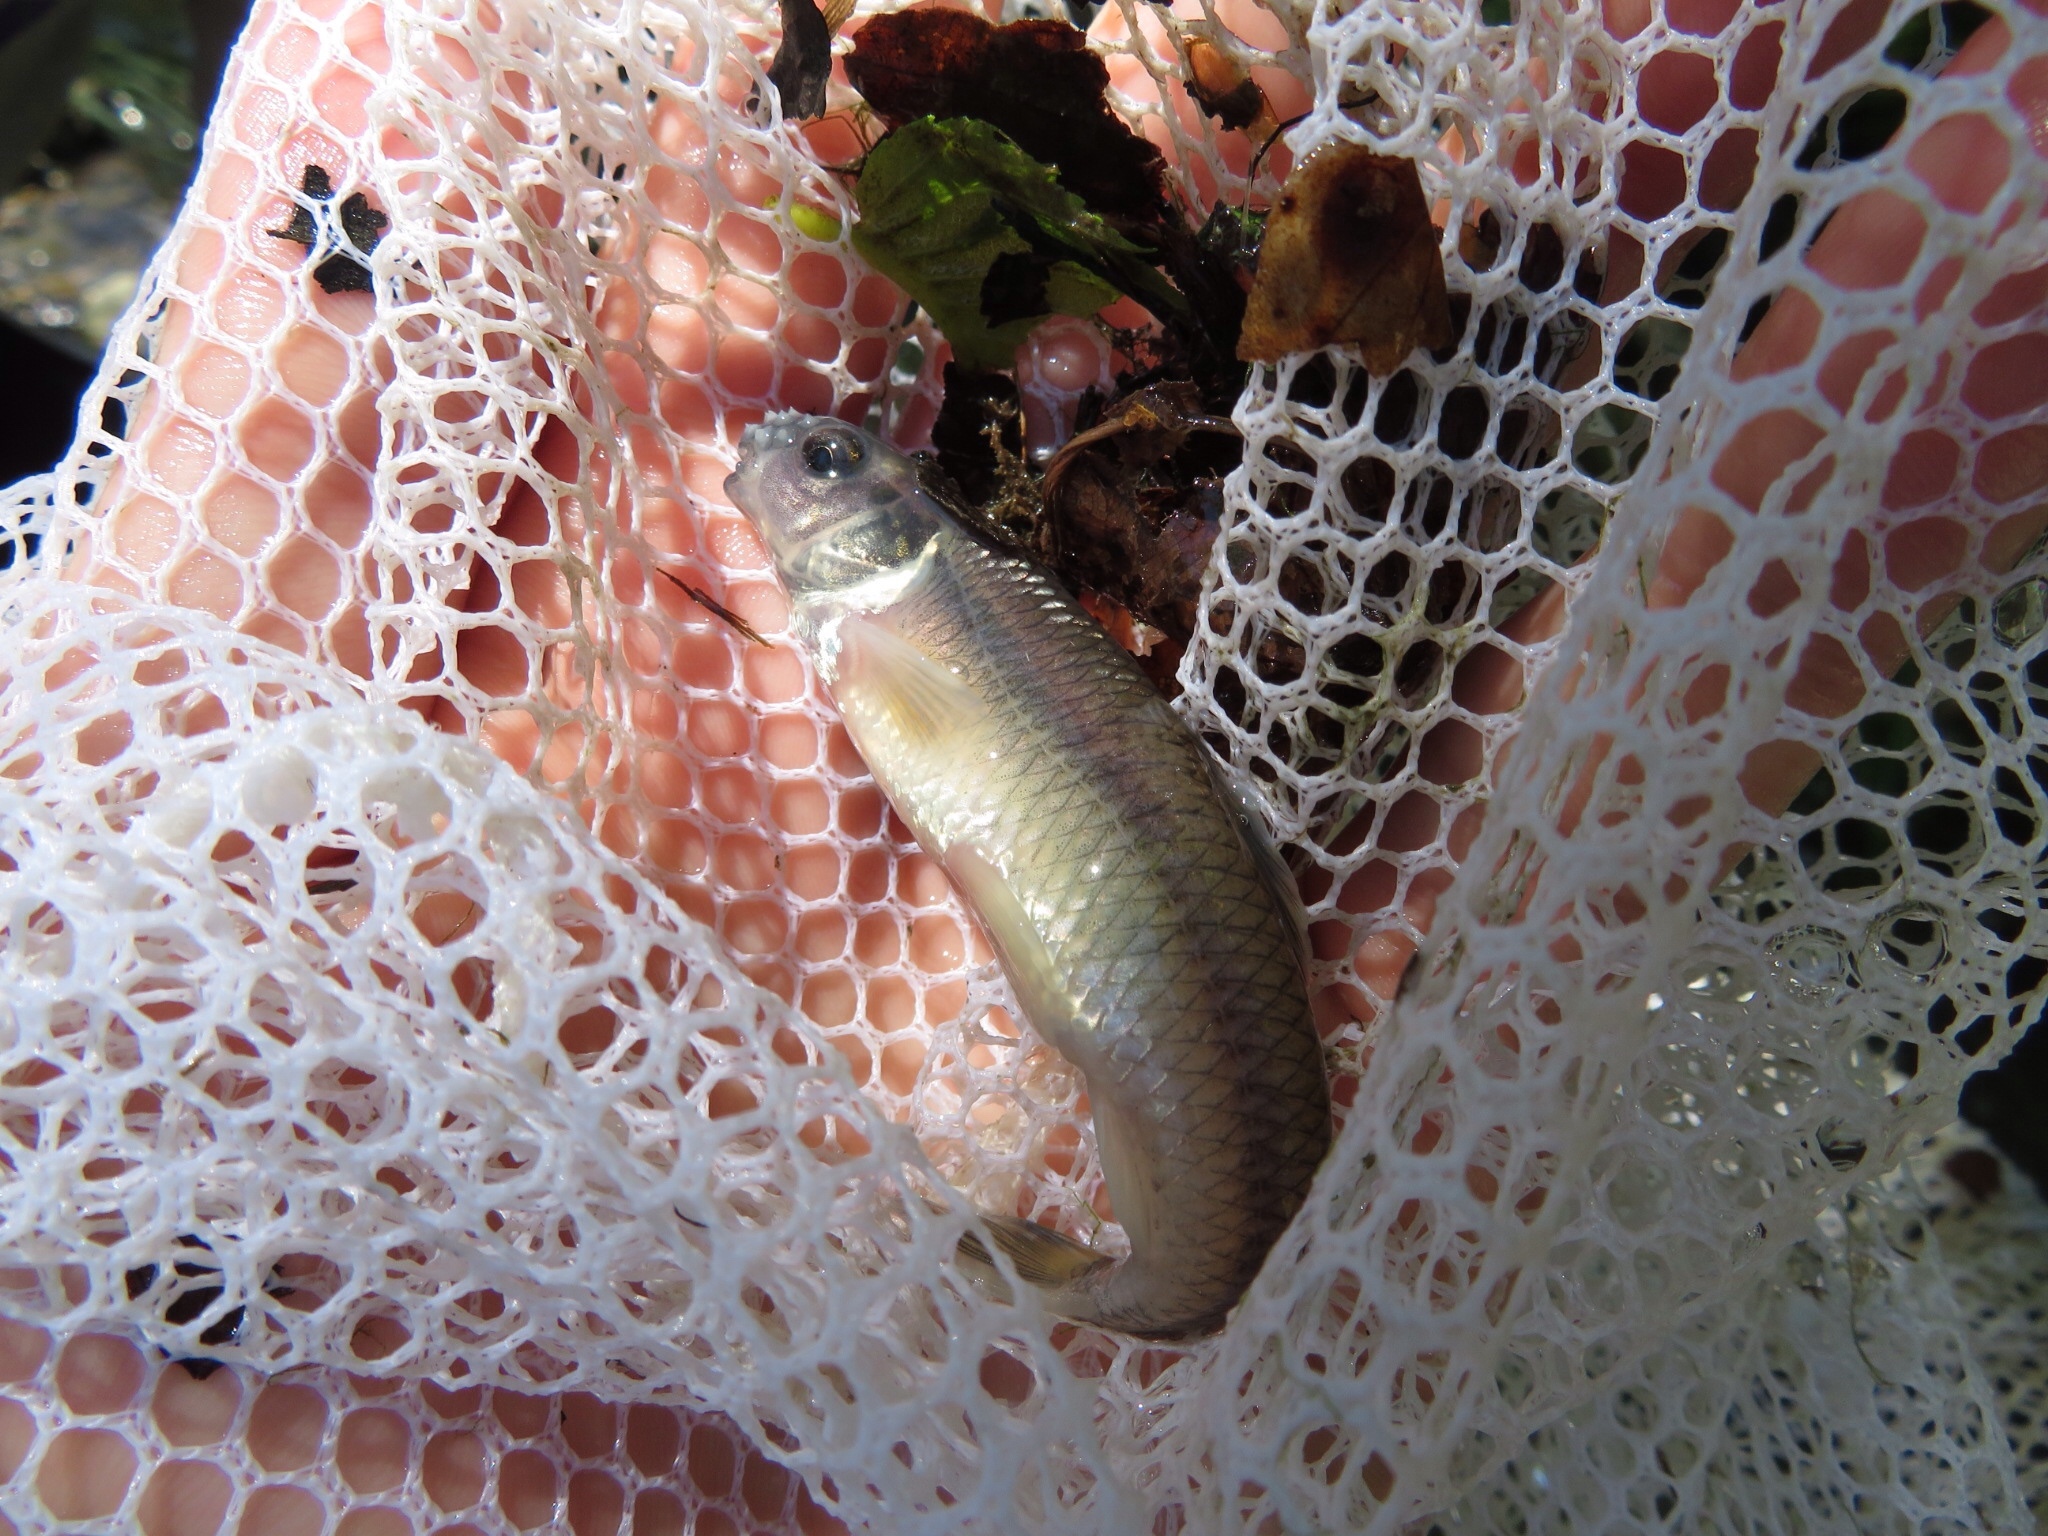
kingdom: Animalia
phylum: Chordata
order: Cypriniformes
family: Cyprinidae
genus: Pimephales
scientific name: Pimephales notatus
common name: Bluntnose minnow
